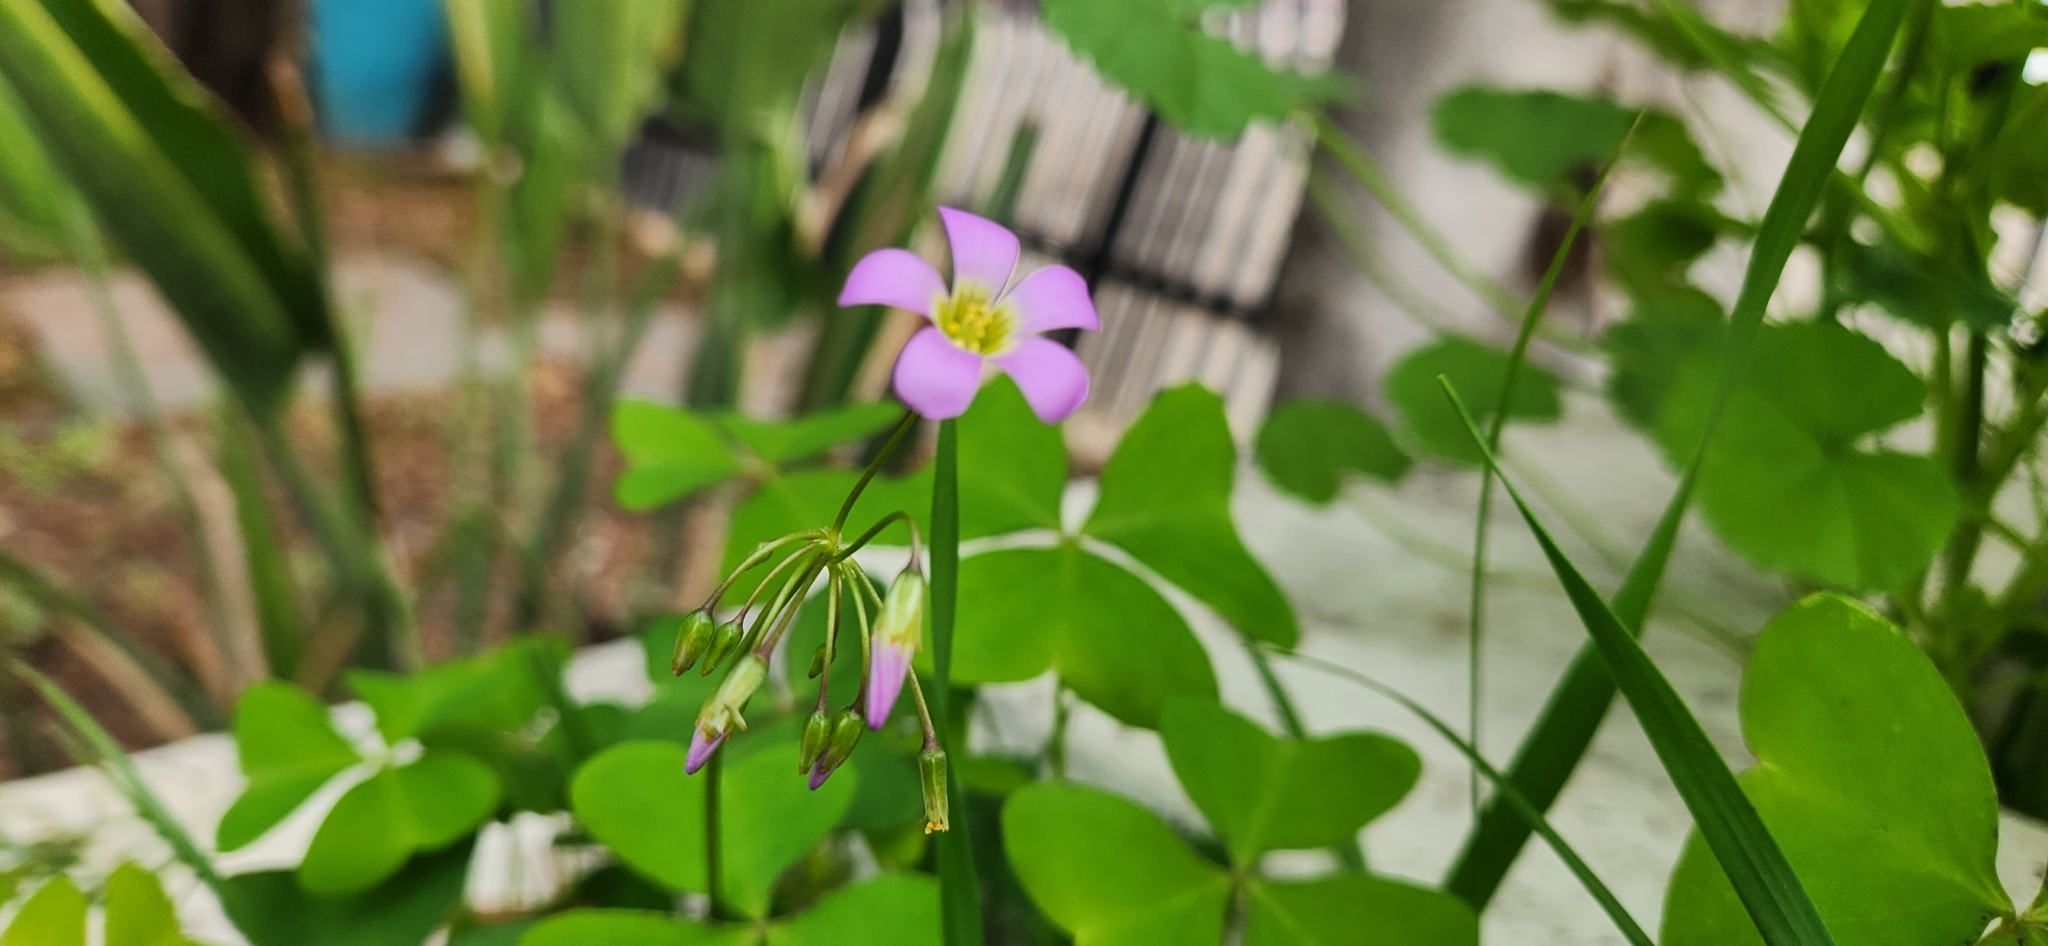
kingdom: Plantae
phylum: Tracheophyta
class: Magnoliopsida
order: Oxalidales
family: Oxalidaceae
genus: Oxalis
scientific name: Oxalis latifolia
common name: Garden pink-sorrel
